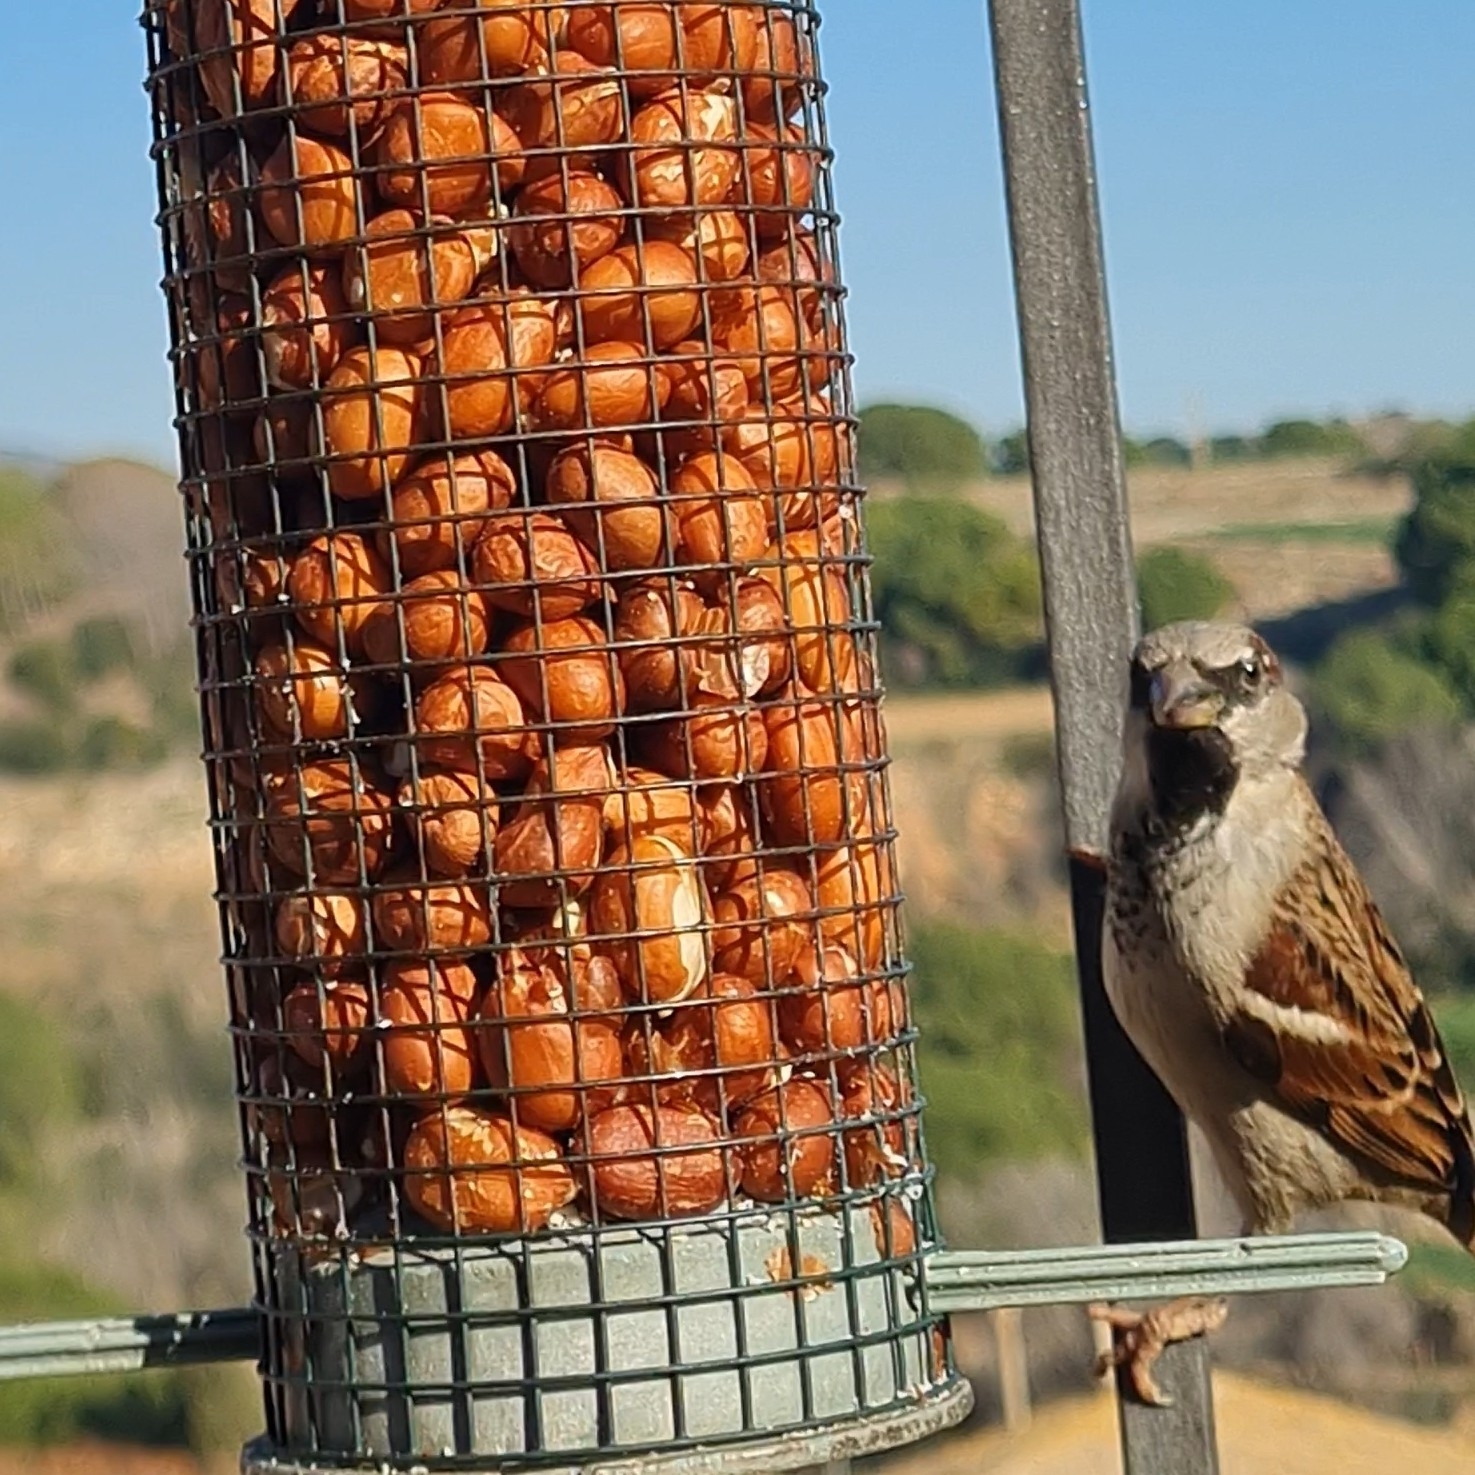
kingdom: Animalia
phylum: Chordata
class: Aves
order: Passeriformes
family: Passeridae
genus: Passer
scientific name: Passer domesticus
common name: House sparrow
